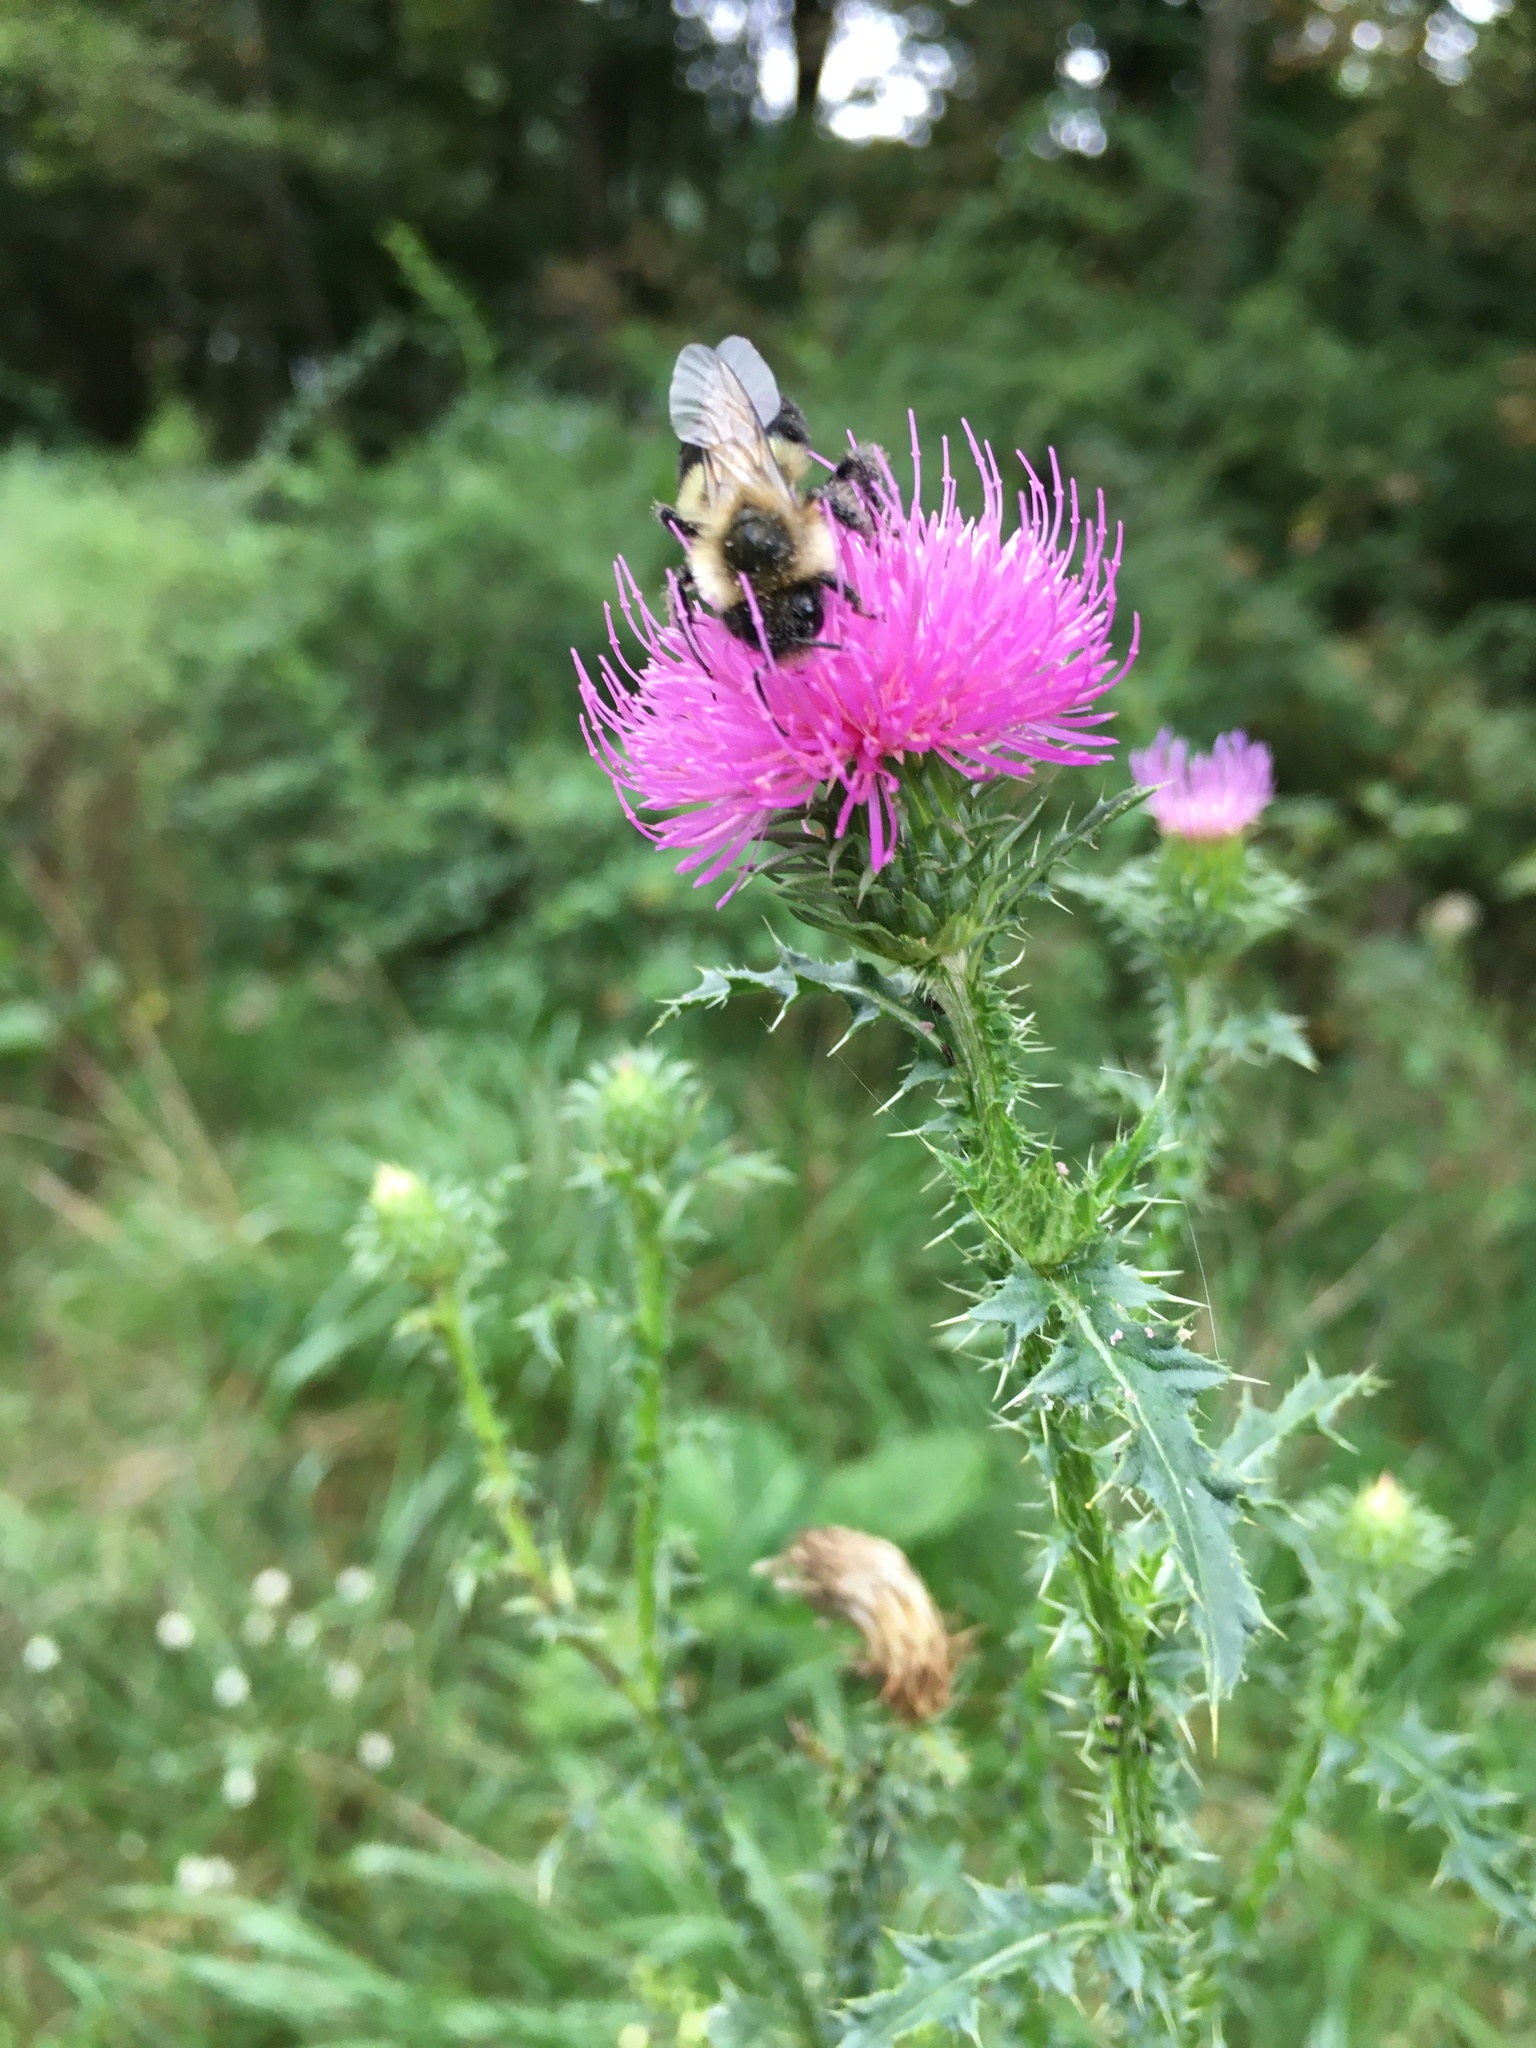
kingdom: Plantae
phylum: Tracheophyta
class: Magnoliopsida
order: Asterales
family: Asteraceae
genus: Carduus
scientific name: Carduus acanthoides
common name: Plumeless thistle
